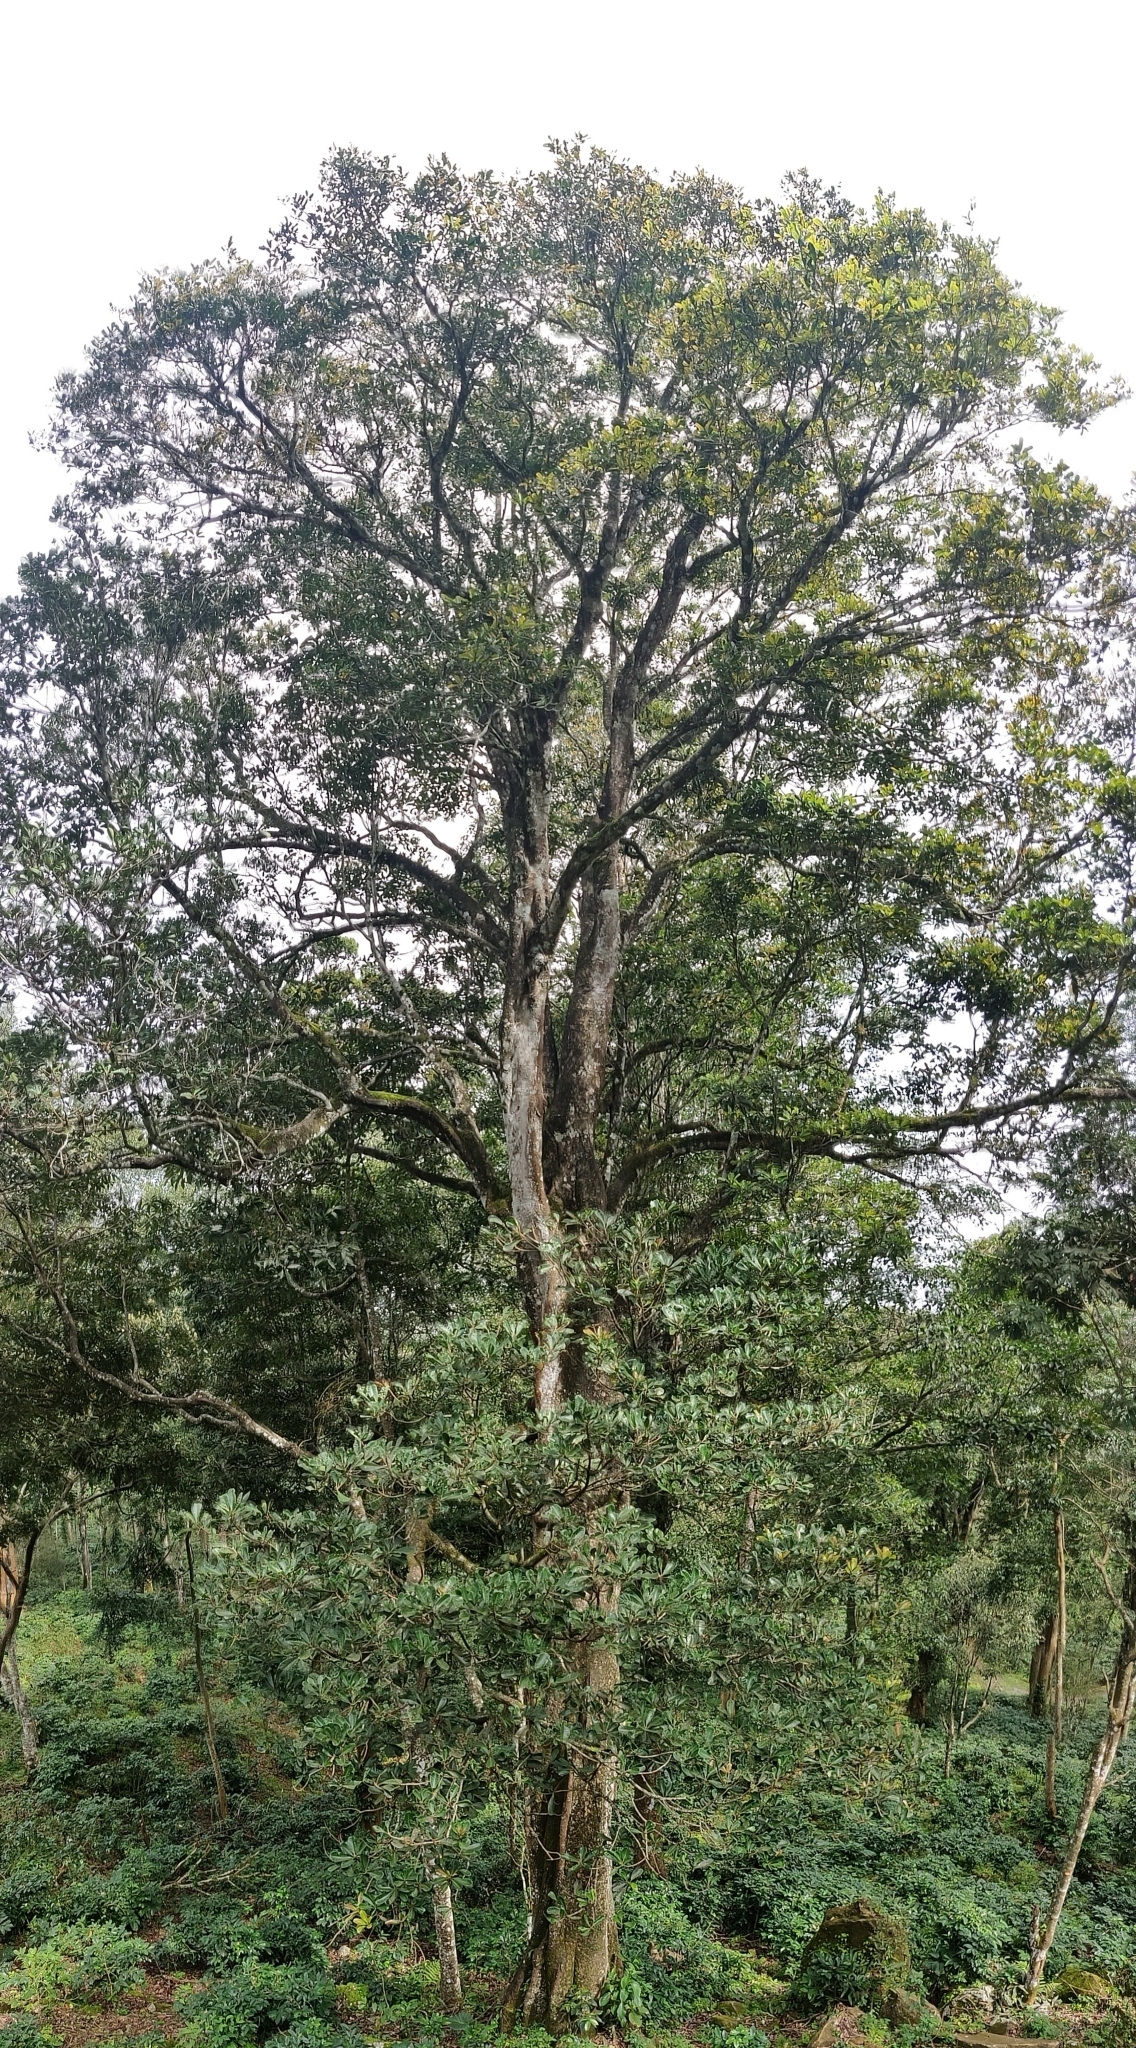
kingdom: Plantae
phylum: Tracheophyta
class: Magnoliopsida
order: Sapindales
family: Anacardiaceae
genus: Holigarna
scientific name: Holigarna arnottiana
